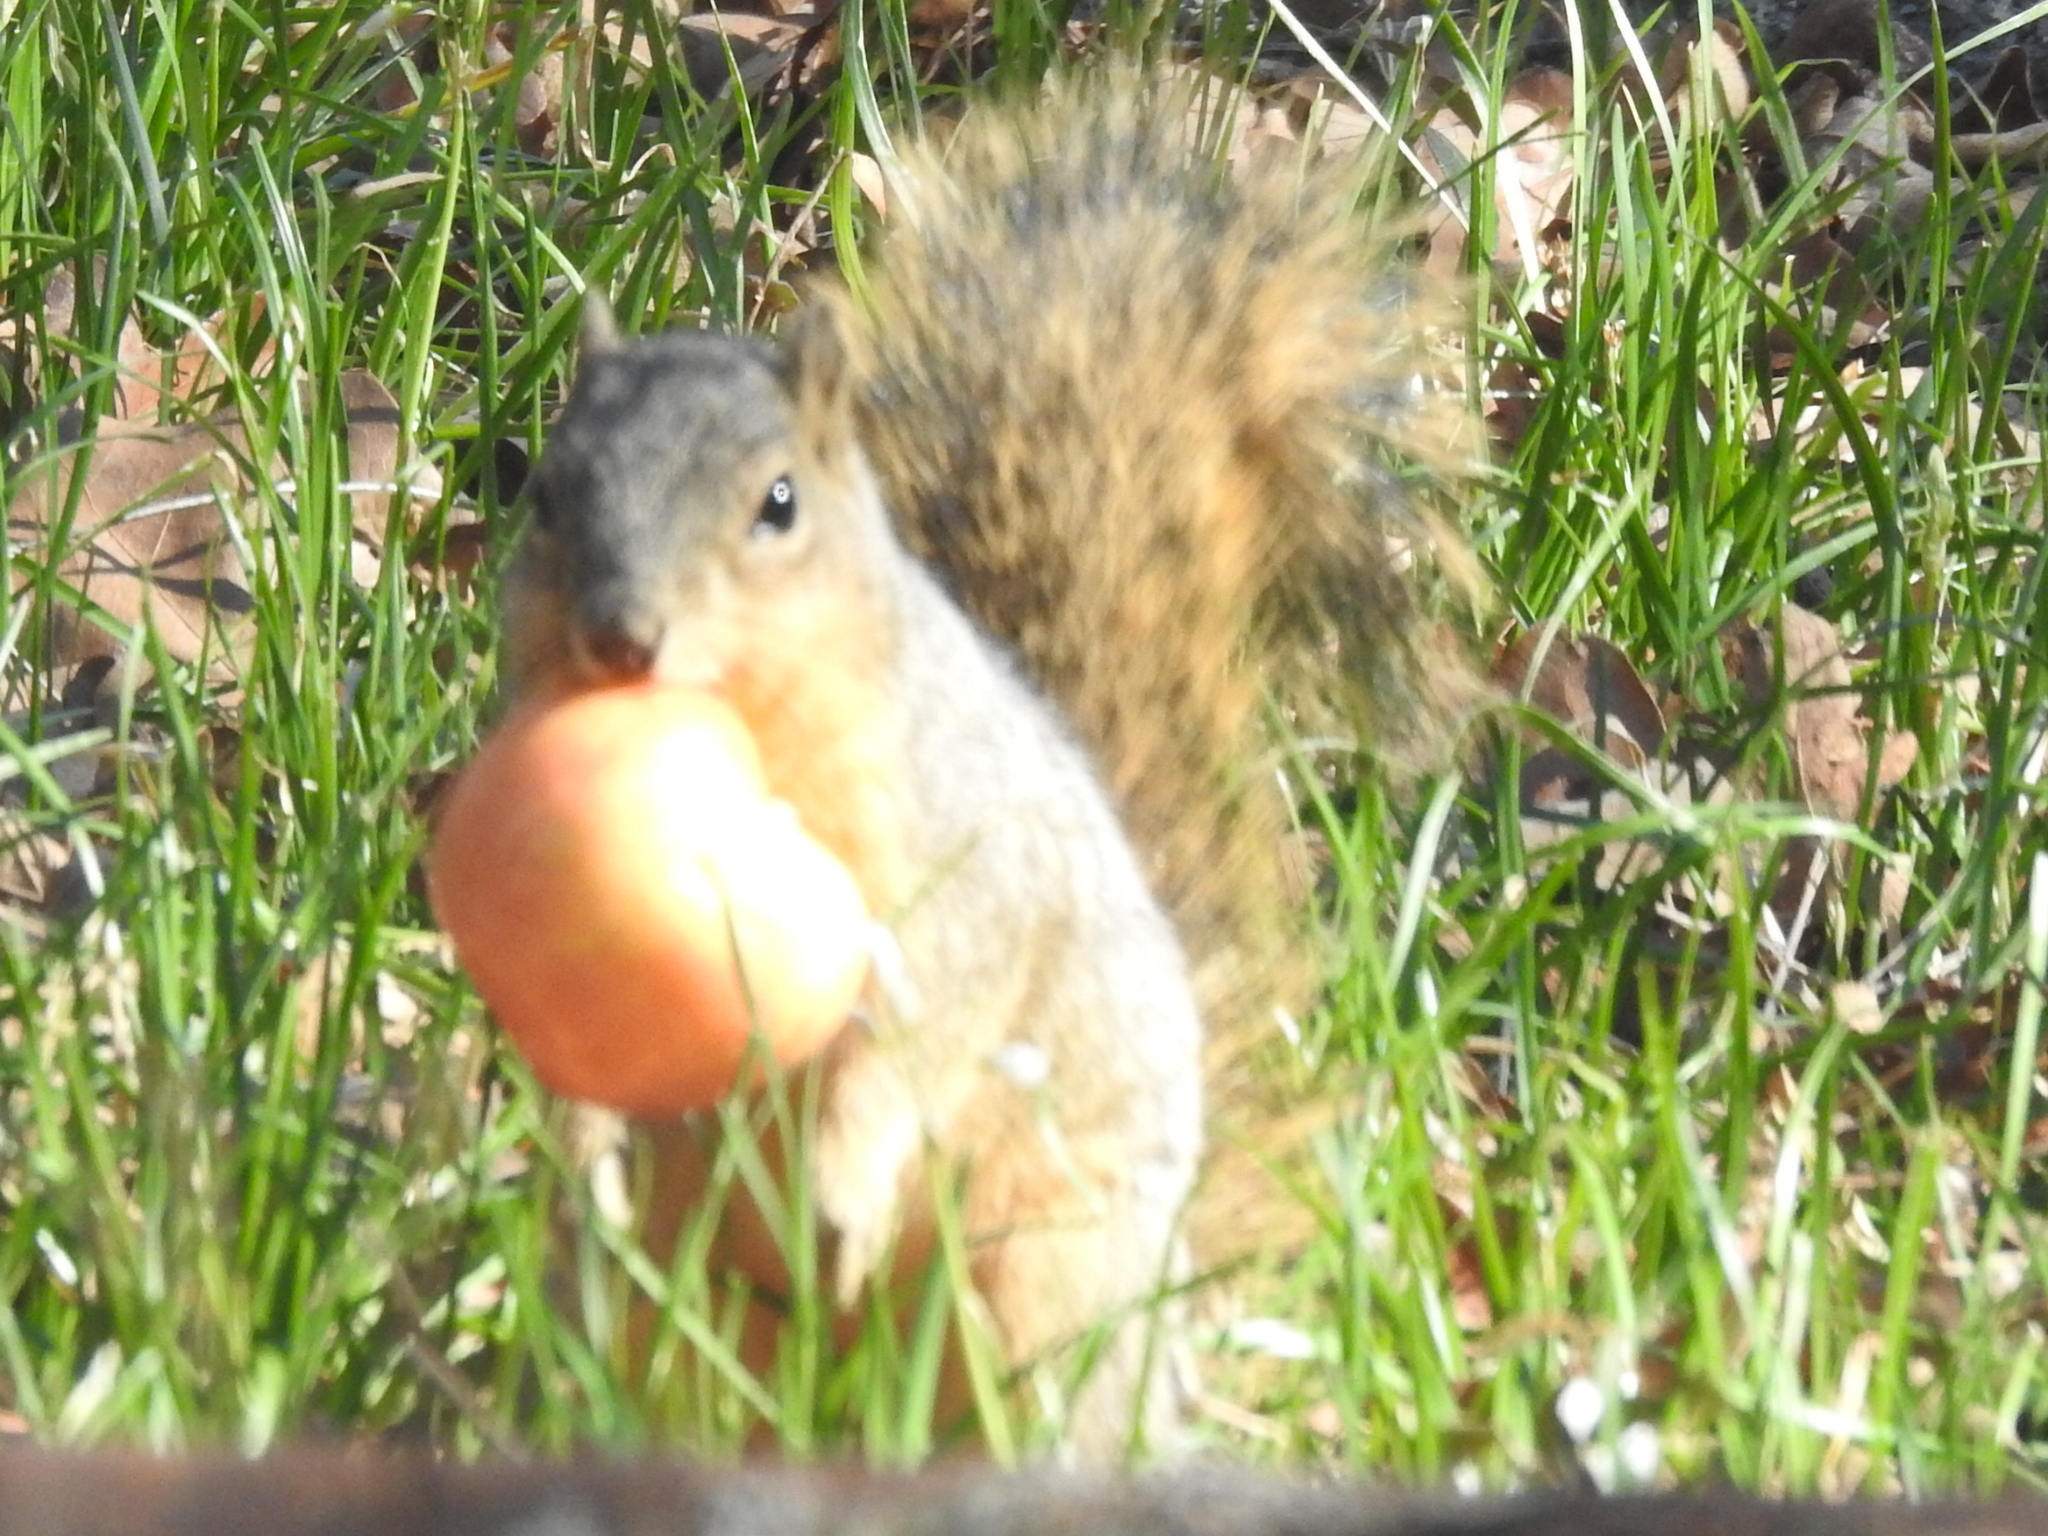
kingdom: Animalia
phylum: Chordata
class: Mammalia
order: Rodentia
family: Sciuridae
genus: Sciurus
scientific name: Sciurus niger
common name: Fox squirrel
